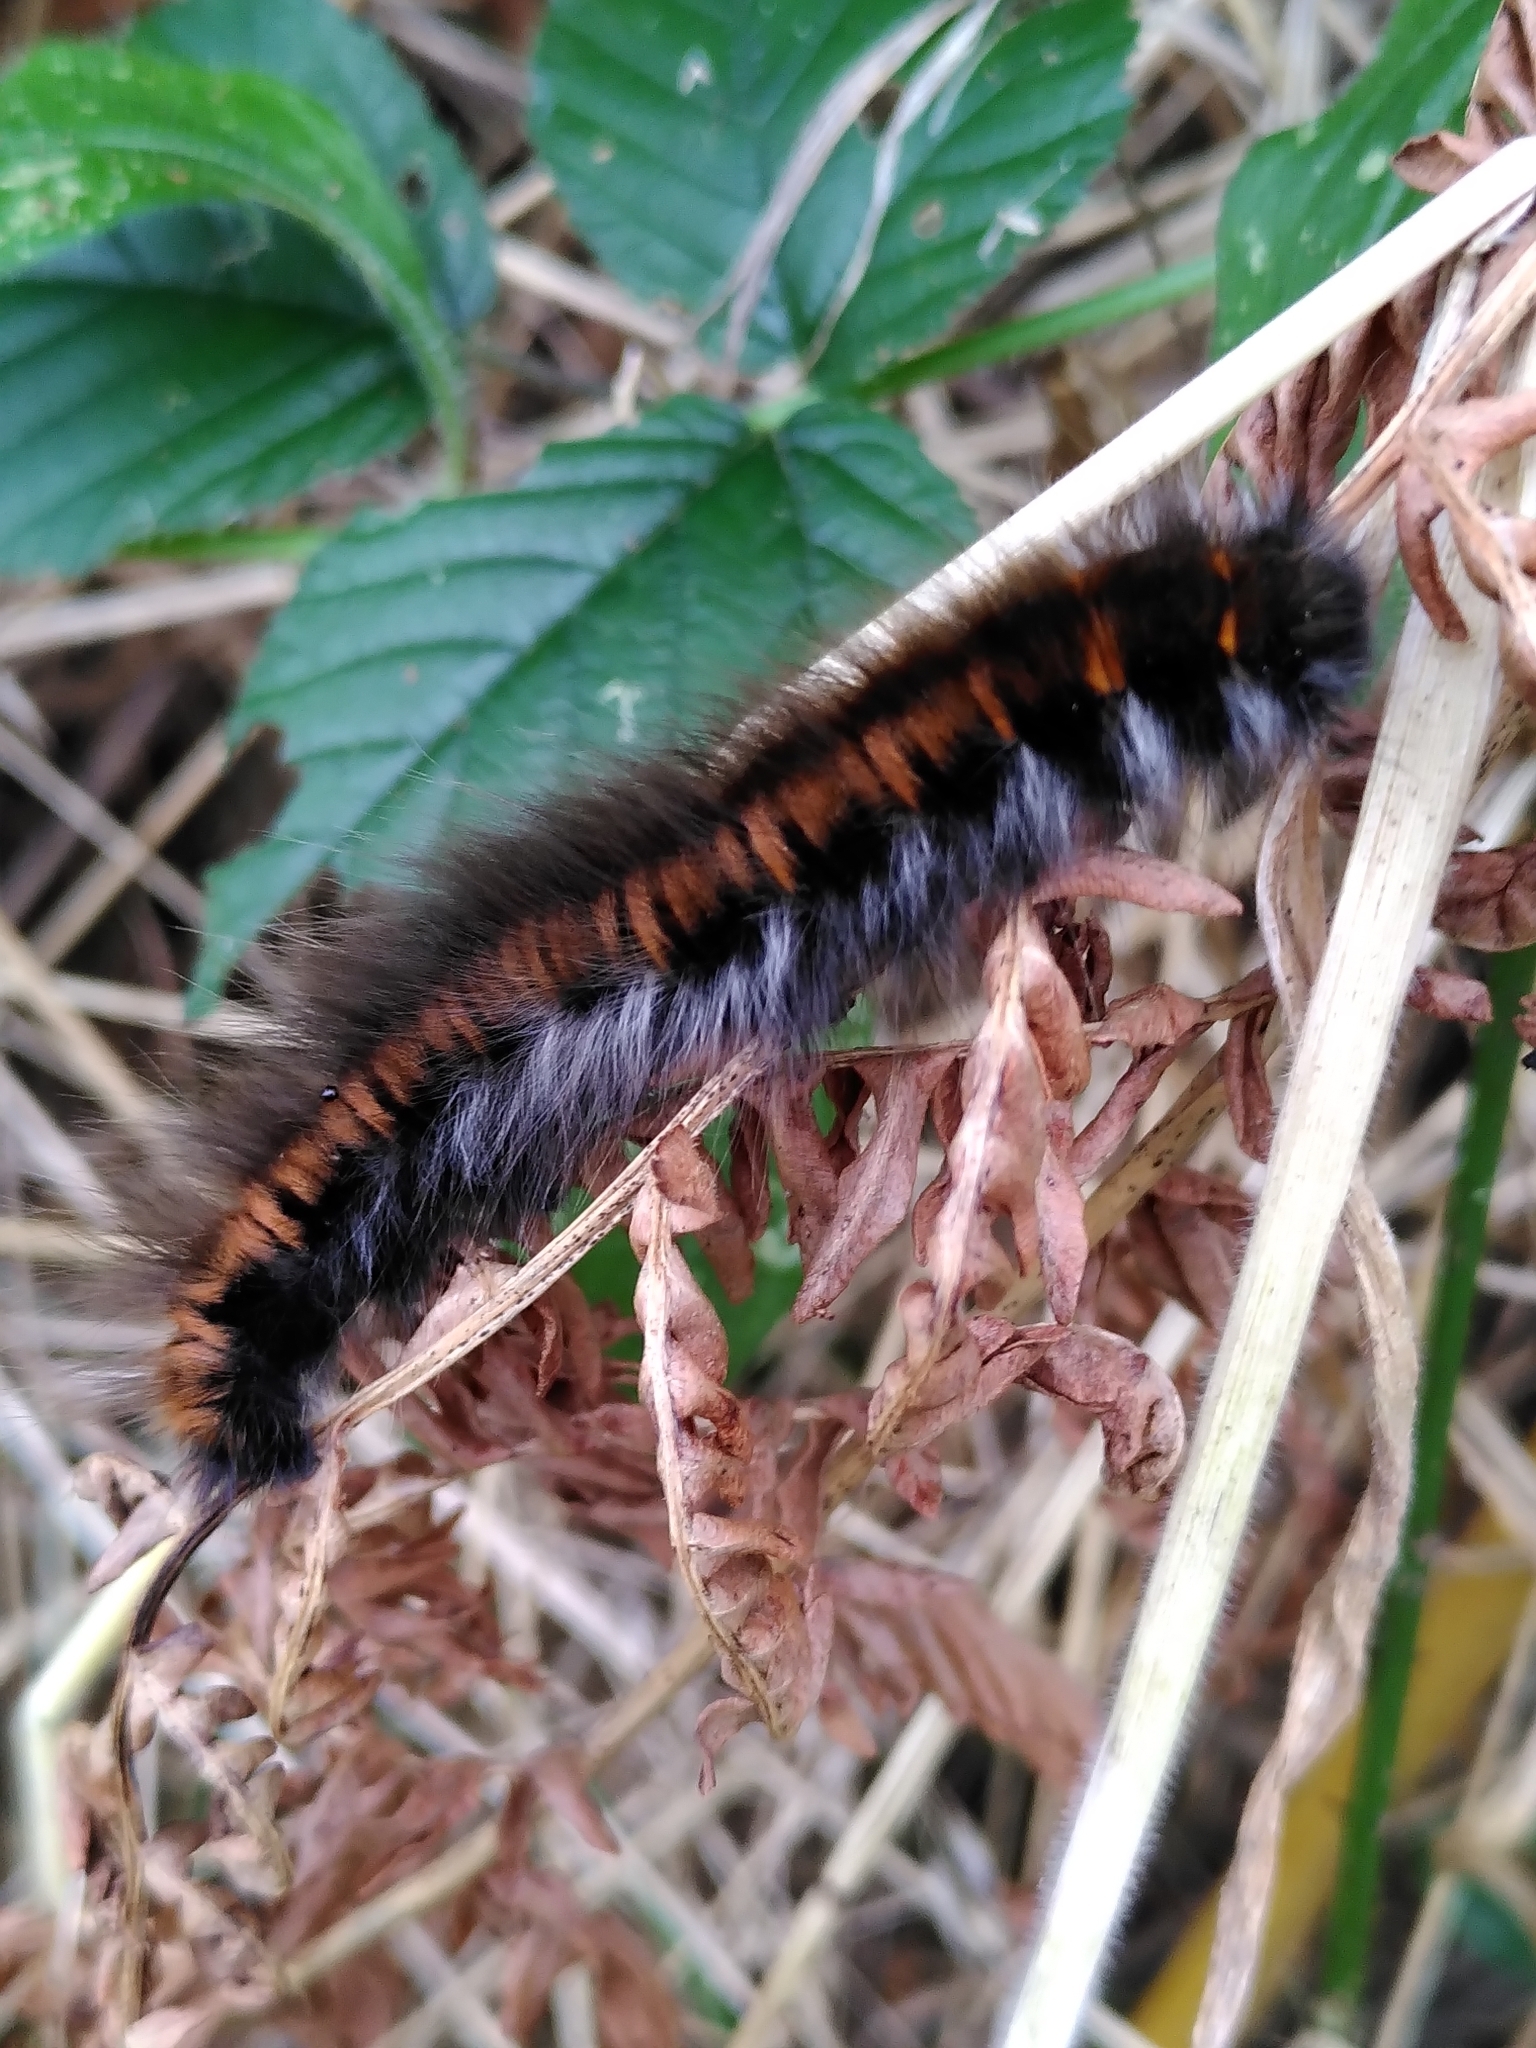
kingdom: Animalia
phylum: Arthropoda
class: Insecta
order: Lepidoptera
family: Lasiocampidae
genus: Macrothylacia
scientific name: Macrothylacia rubi
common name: Fox moth
